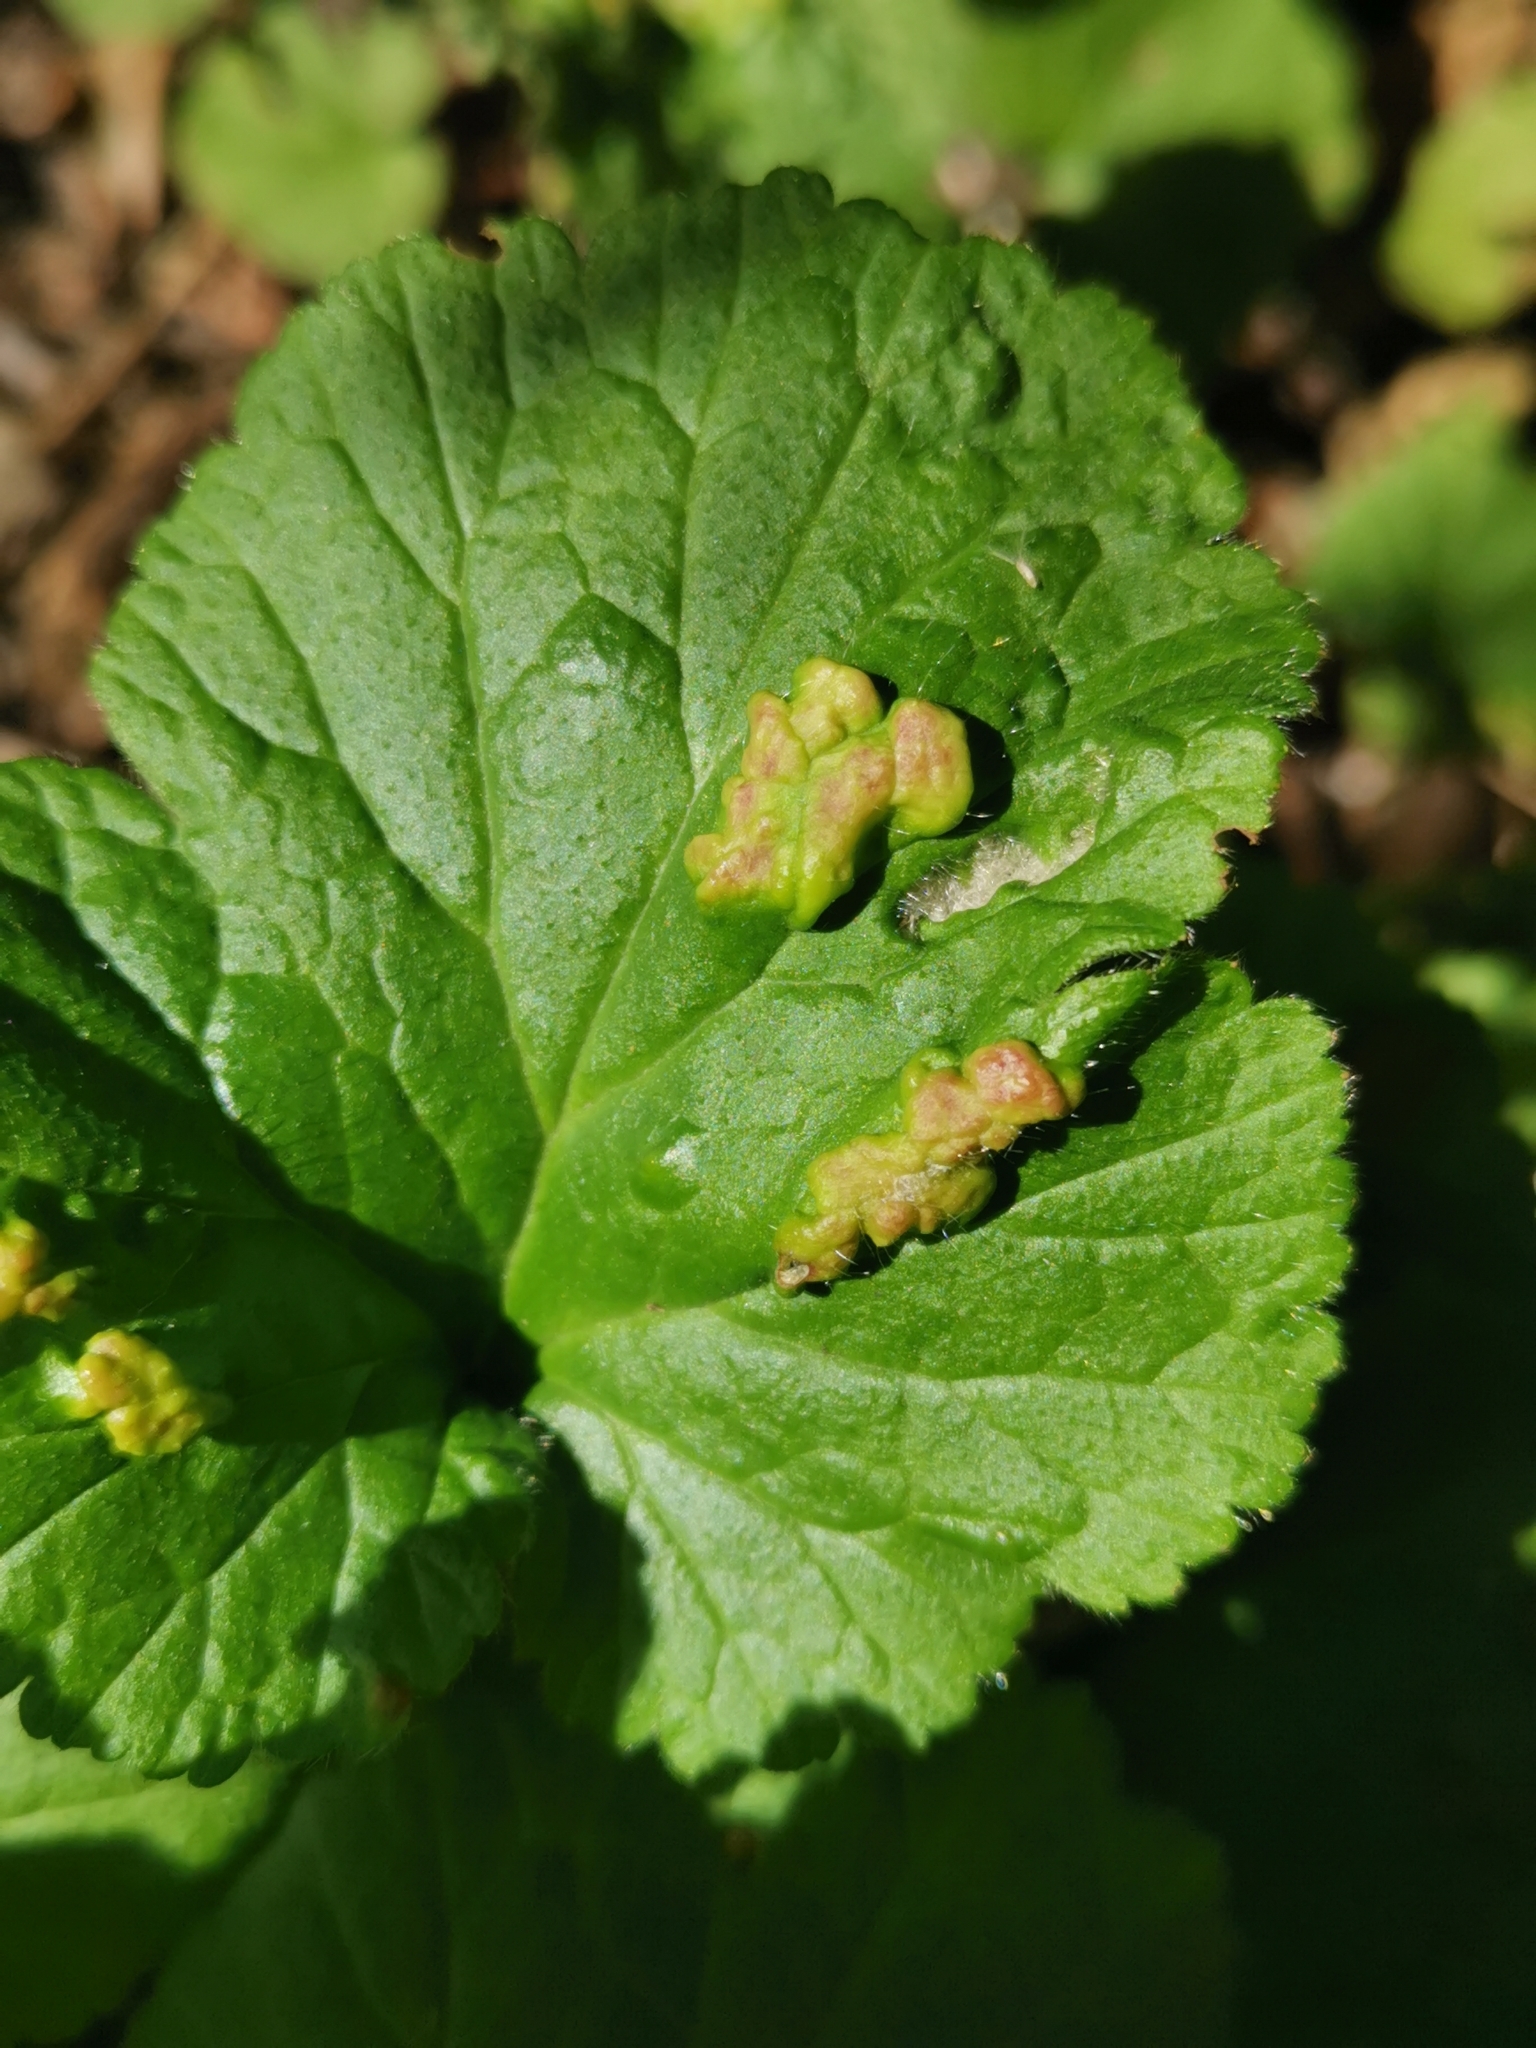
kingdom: Animalia
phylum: Arthropoda
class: Arachnida
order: Trombidiformes
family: Eriophyidae
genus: Cecidophyes
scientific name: Cecidophyes nudus
